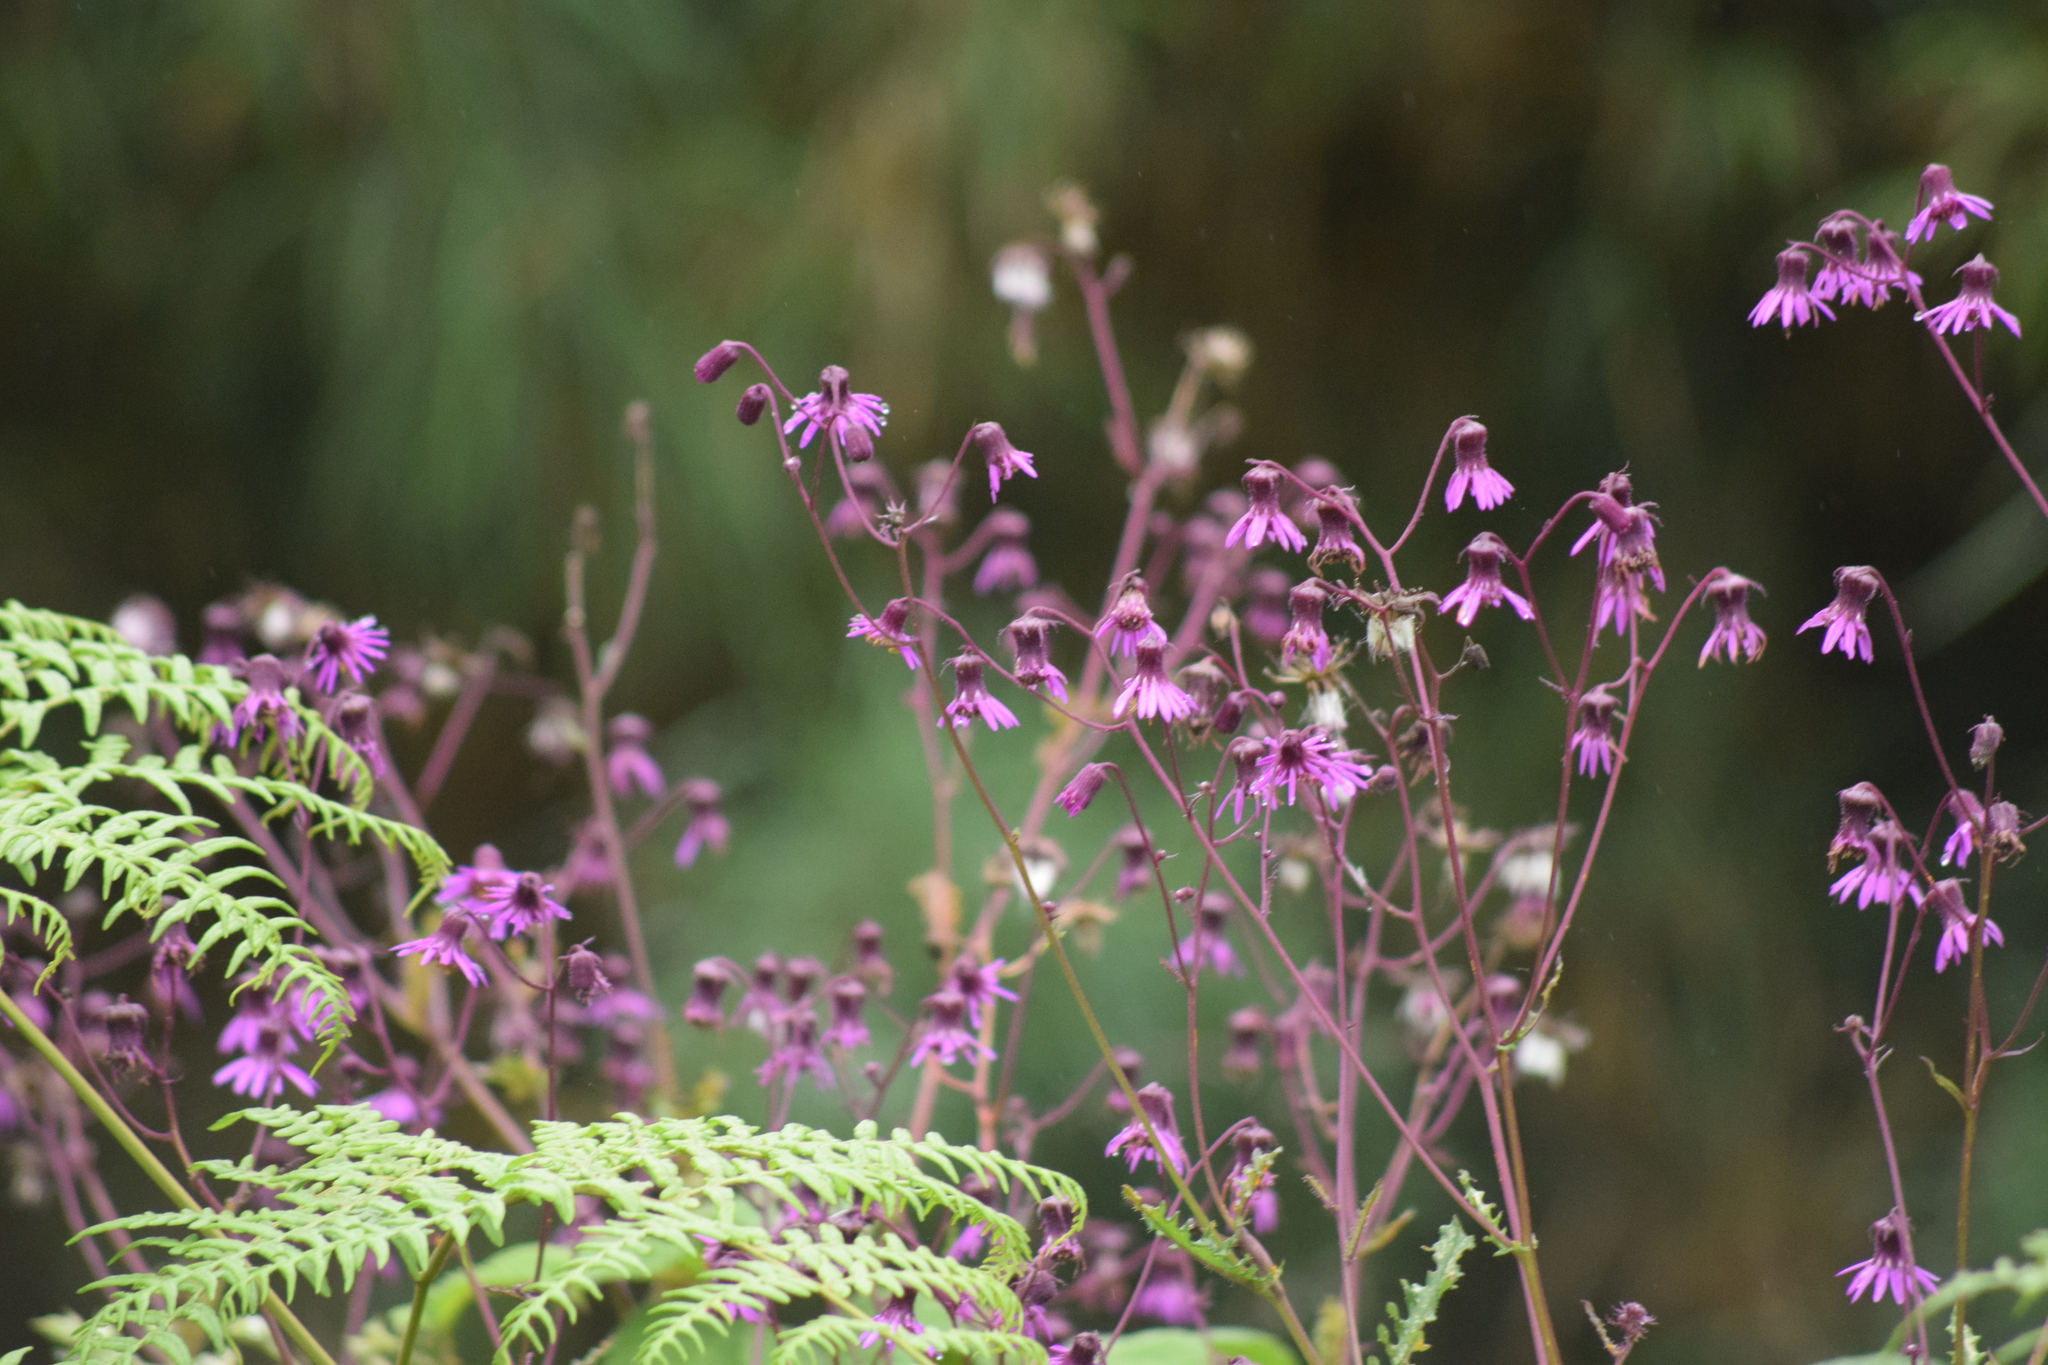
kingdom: Plantae
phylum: Tracheophyta
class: Magnoliopsida
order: Asterales
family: Asteraceae
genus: Senecio
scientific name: Senecio garcibarrigae
